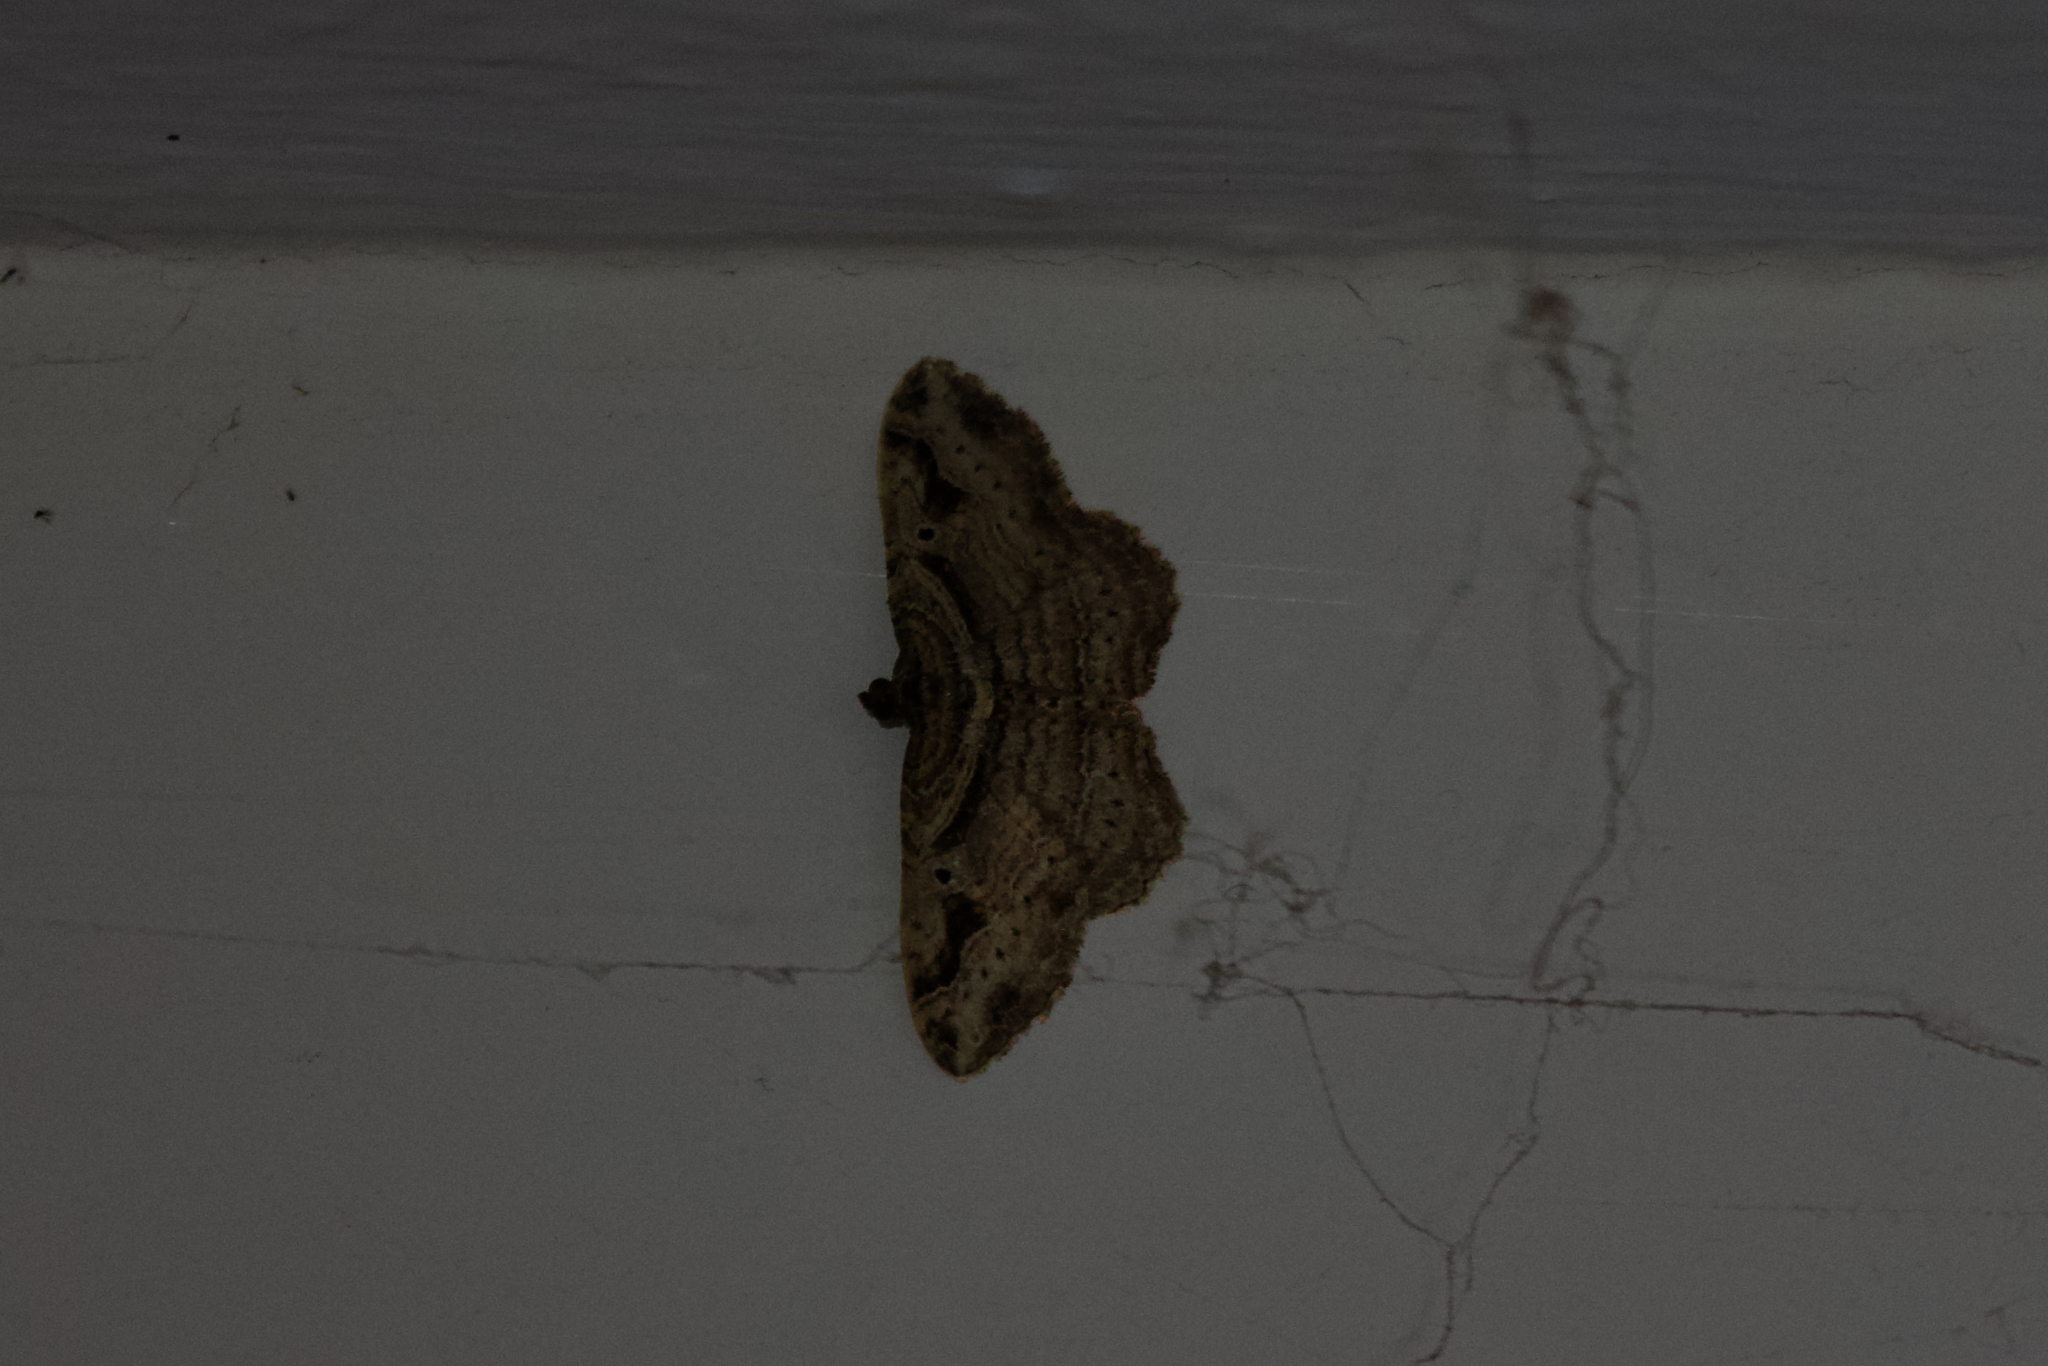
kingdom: Animalia
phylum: Arthropoda
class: Insecta
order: Lepidoptera
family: Geometridae
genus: Costaconvexa
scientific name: Costaconvexa centrostrigaria
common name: Bent-line carpet
